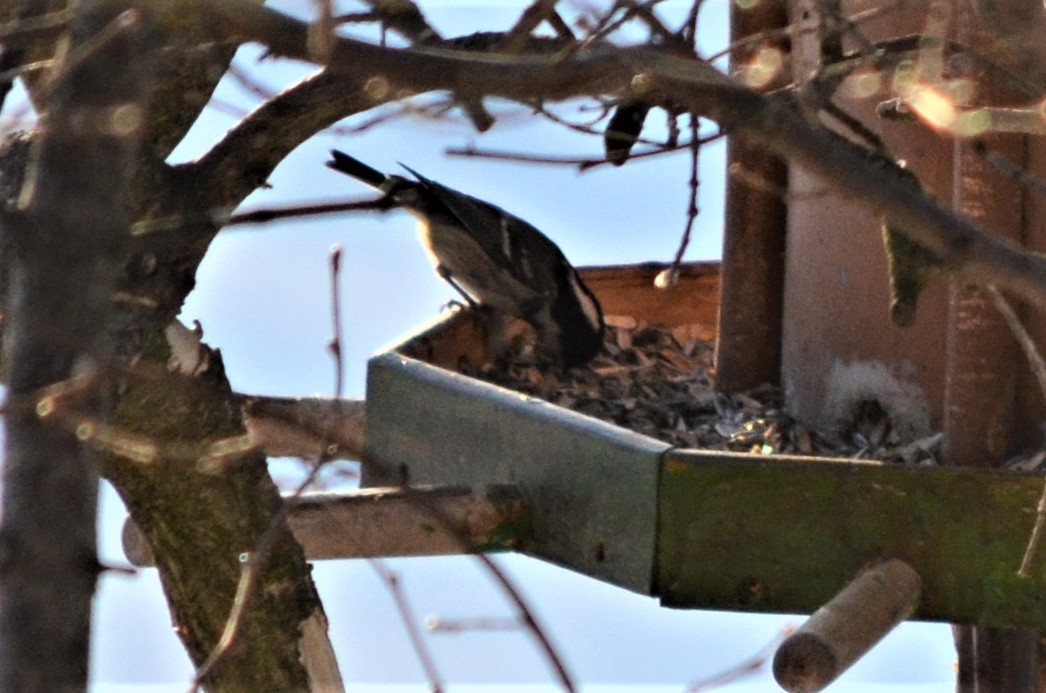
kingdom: Animalia
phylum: Chordata
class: Aves
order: Passeriformes
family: Paridae
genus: Periparus
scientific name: Periparus ater
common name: Coal tit
